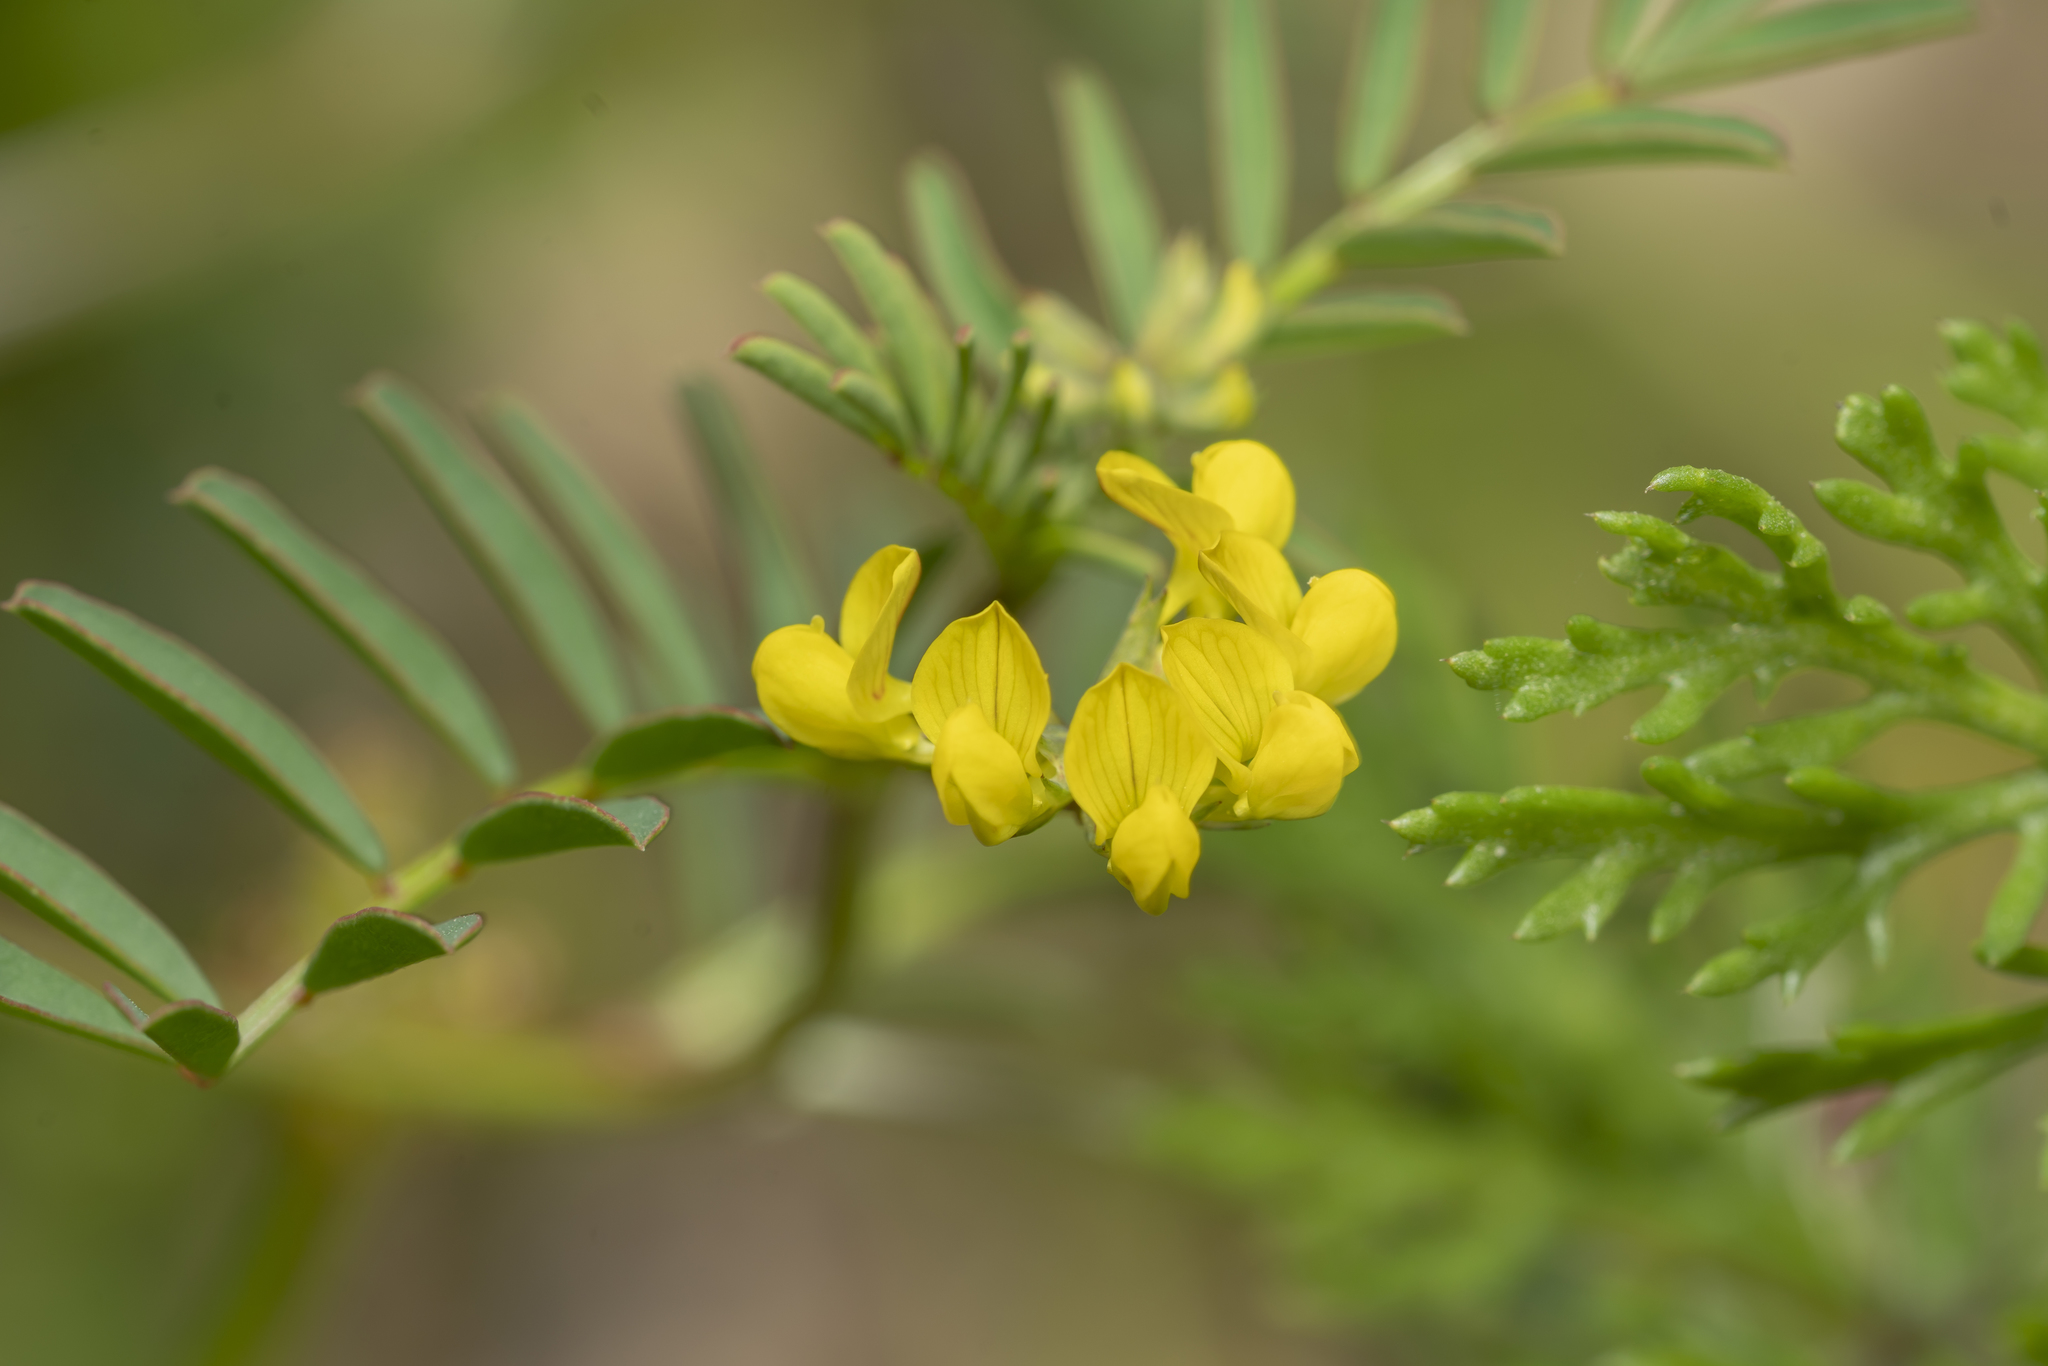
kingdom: Plantae
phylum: Tracheophyta
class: Magnoliopsida
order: Fabales
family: Fabaceae
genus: Hippocrepis
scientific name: Hippocrepis multisiliquosa
